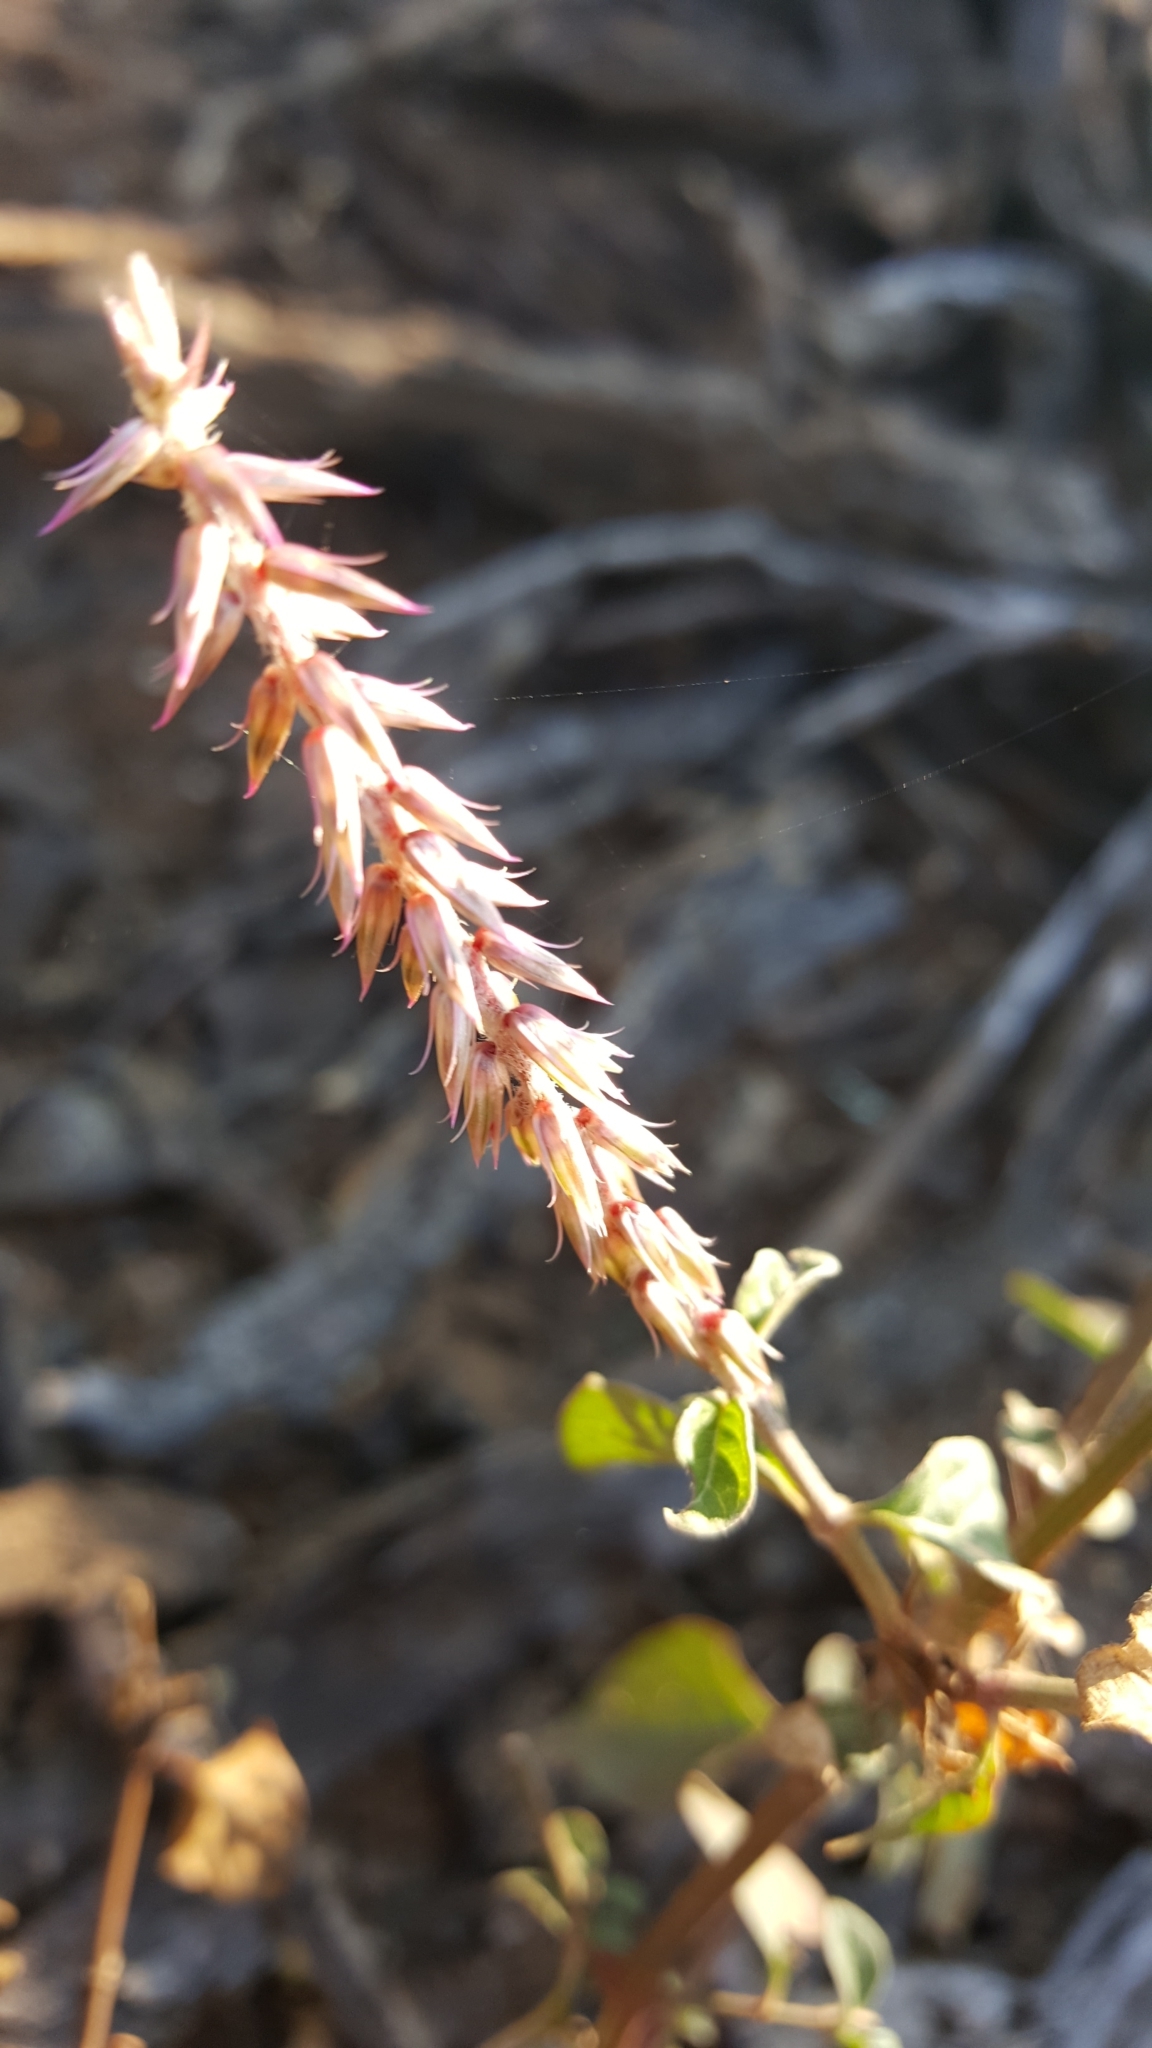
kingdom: Plantae
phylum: Tracheophyta
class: Magnoliopsida
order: Caryophyllales
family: Amaranthaceae
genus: Achyranthes
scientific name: Achyranthes aspera
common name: Devil's horsewhip
